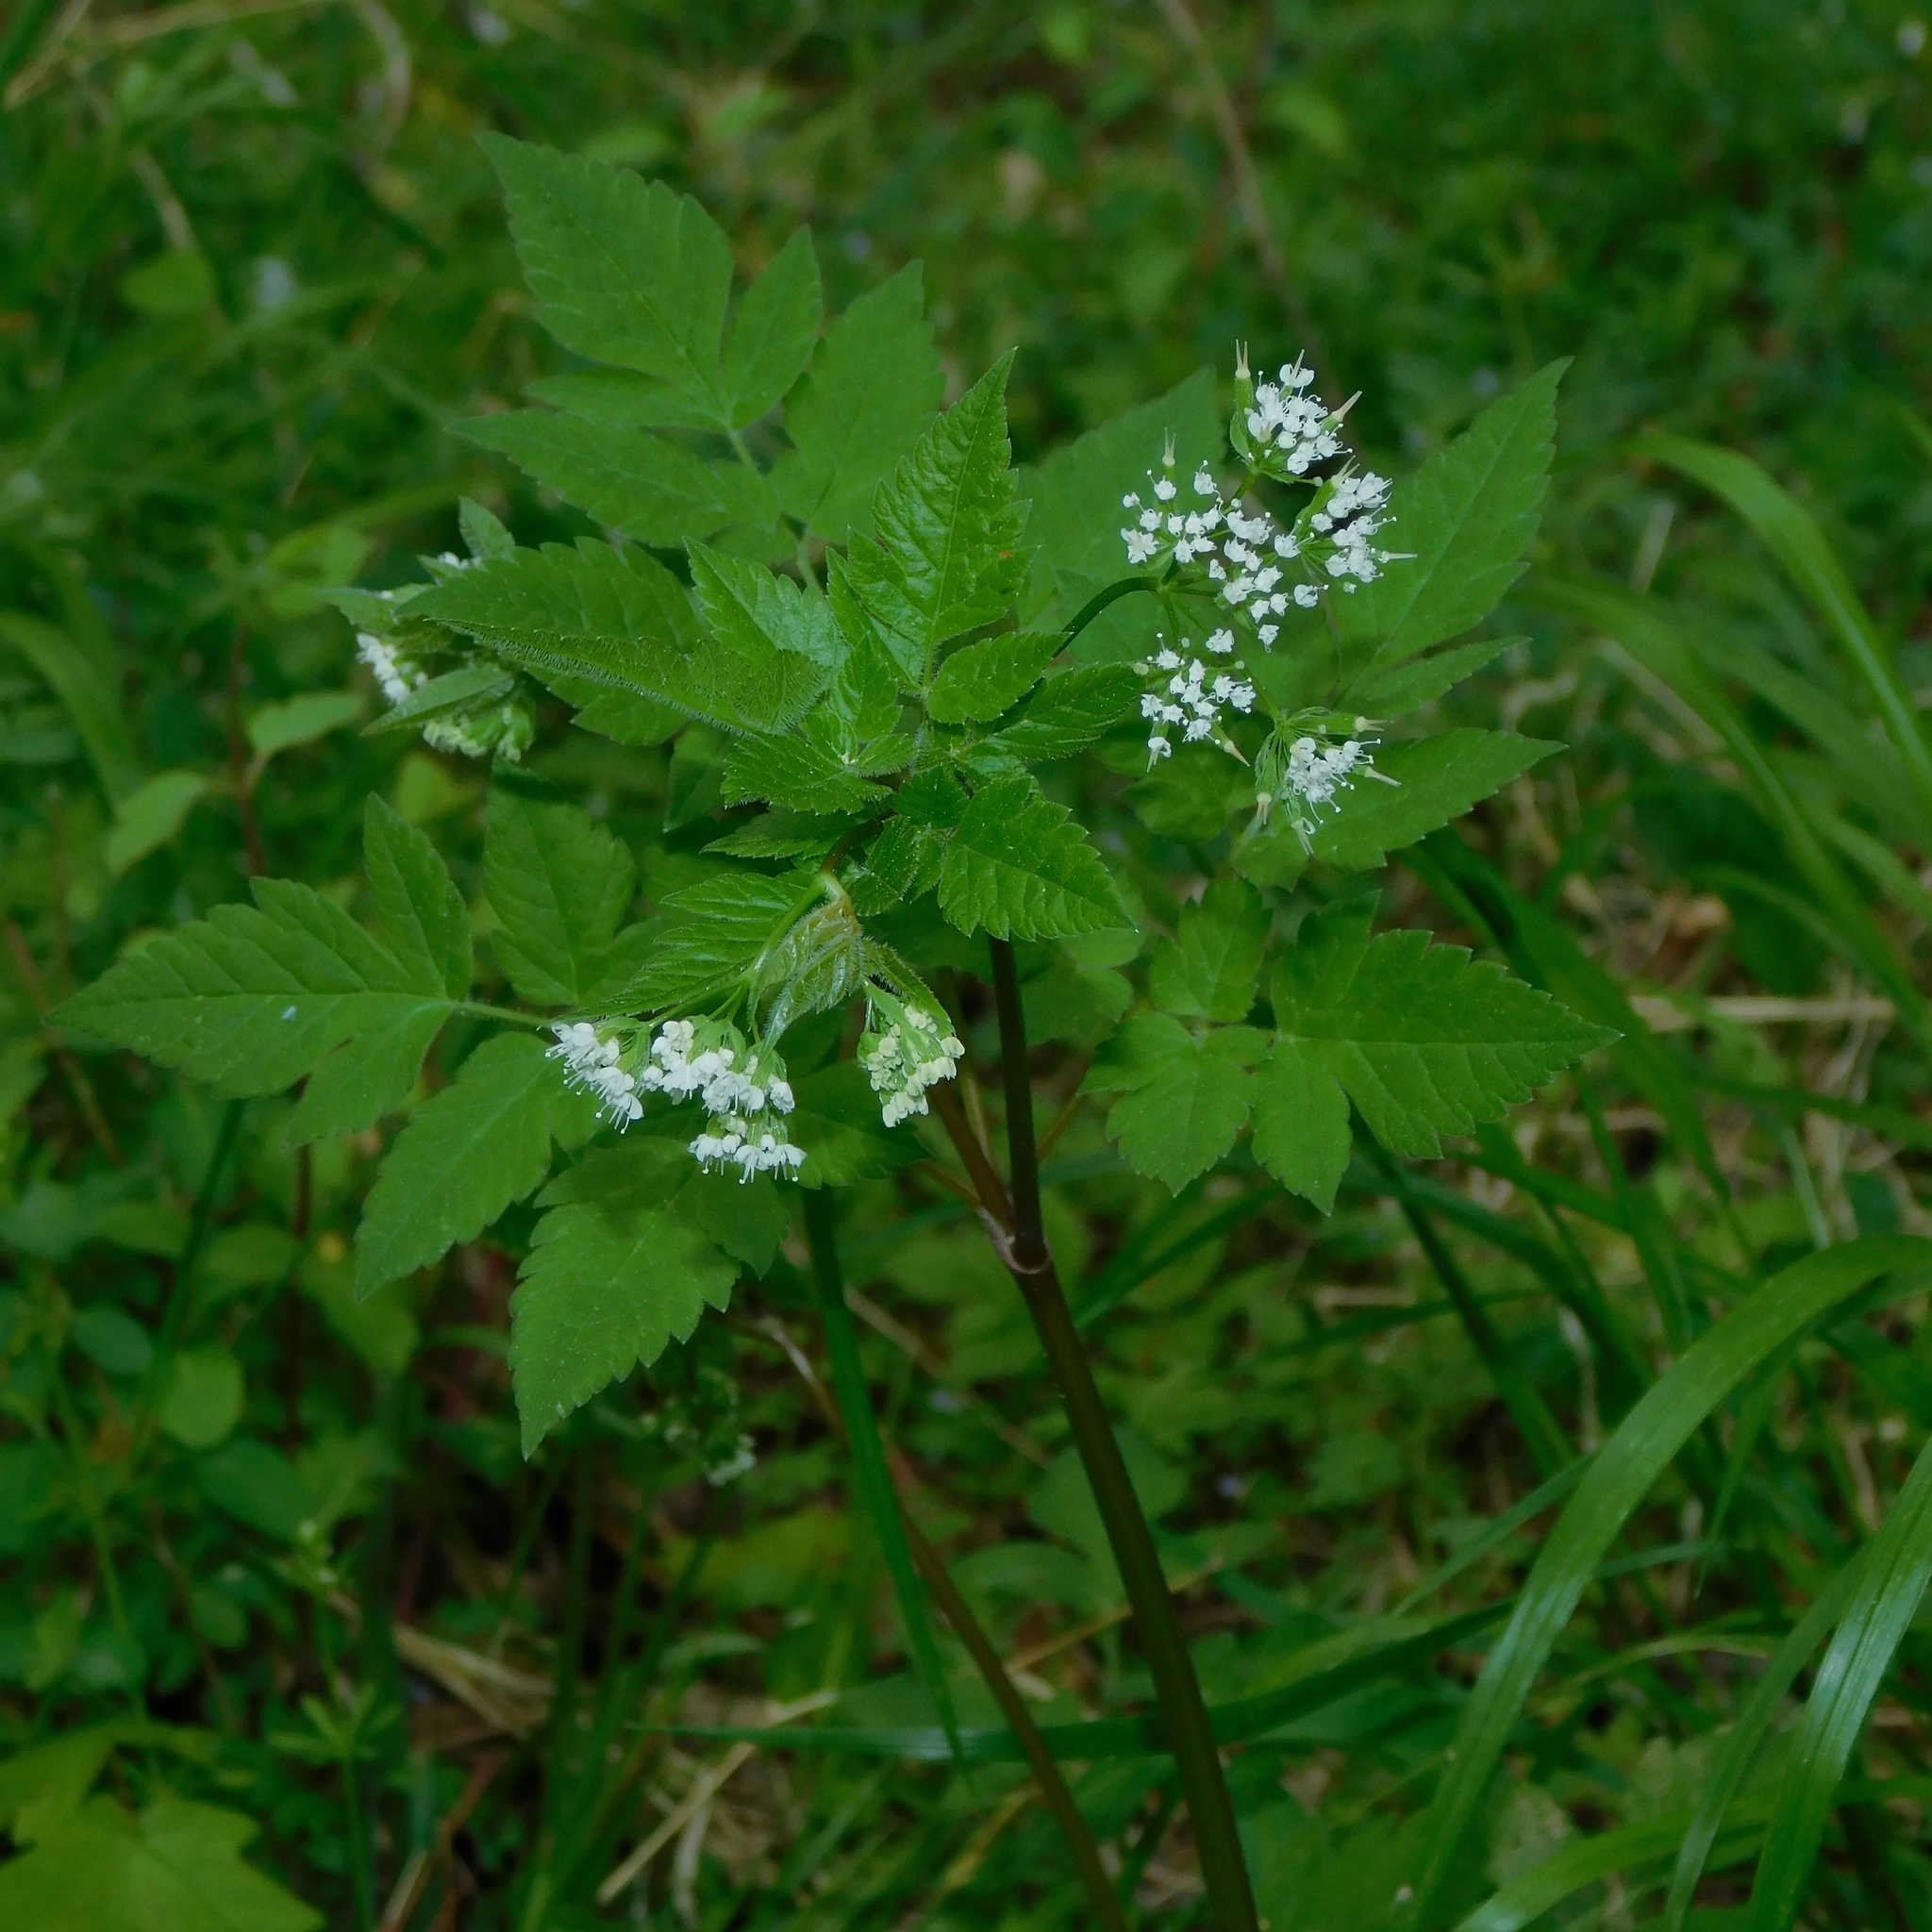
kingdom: Plantae
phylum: Tracheophyta
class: Magnoliopsida
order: Apiales
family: Apiaceae
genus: Osmorhiza
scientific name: Osmorhiza longistylis
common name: Smooth sweet cicely
